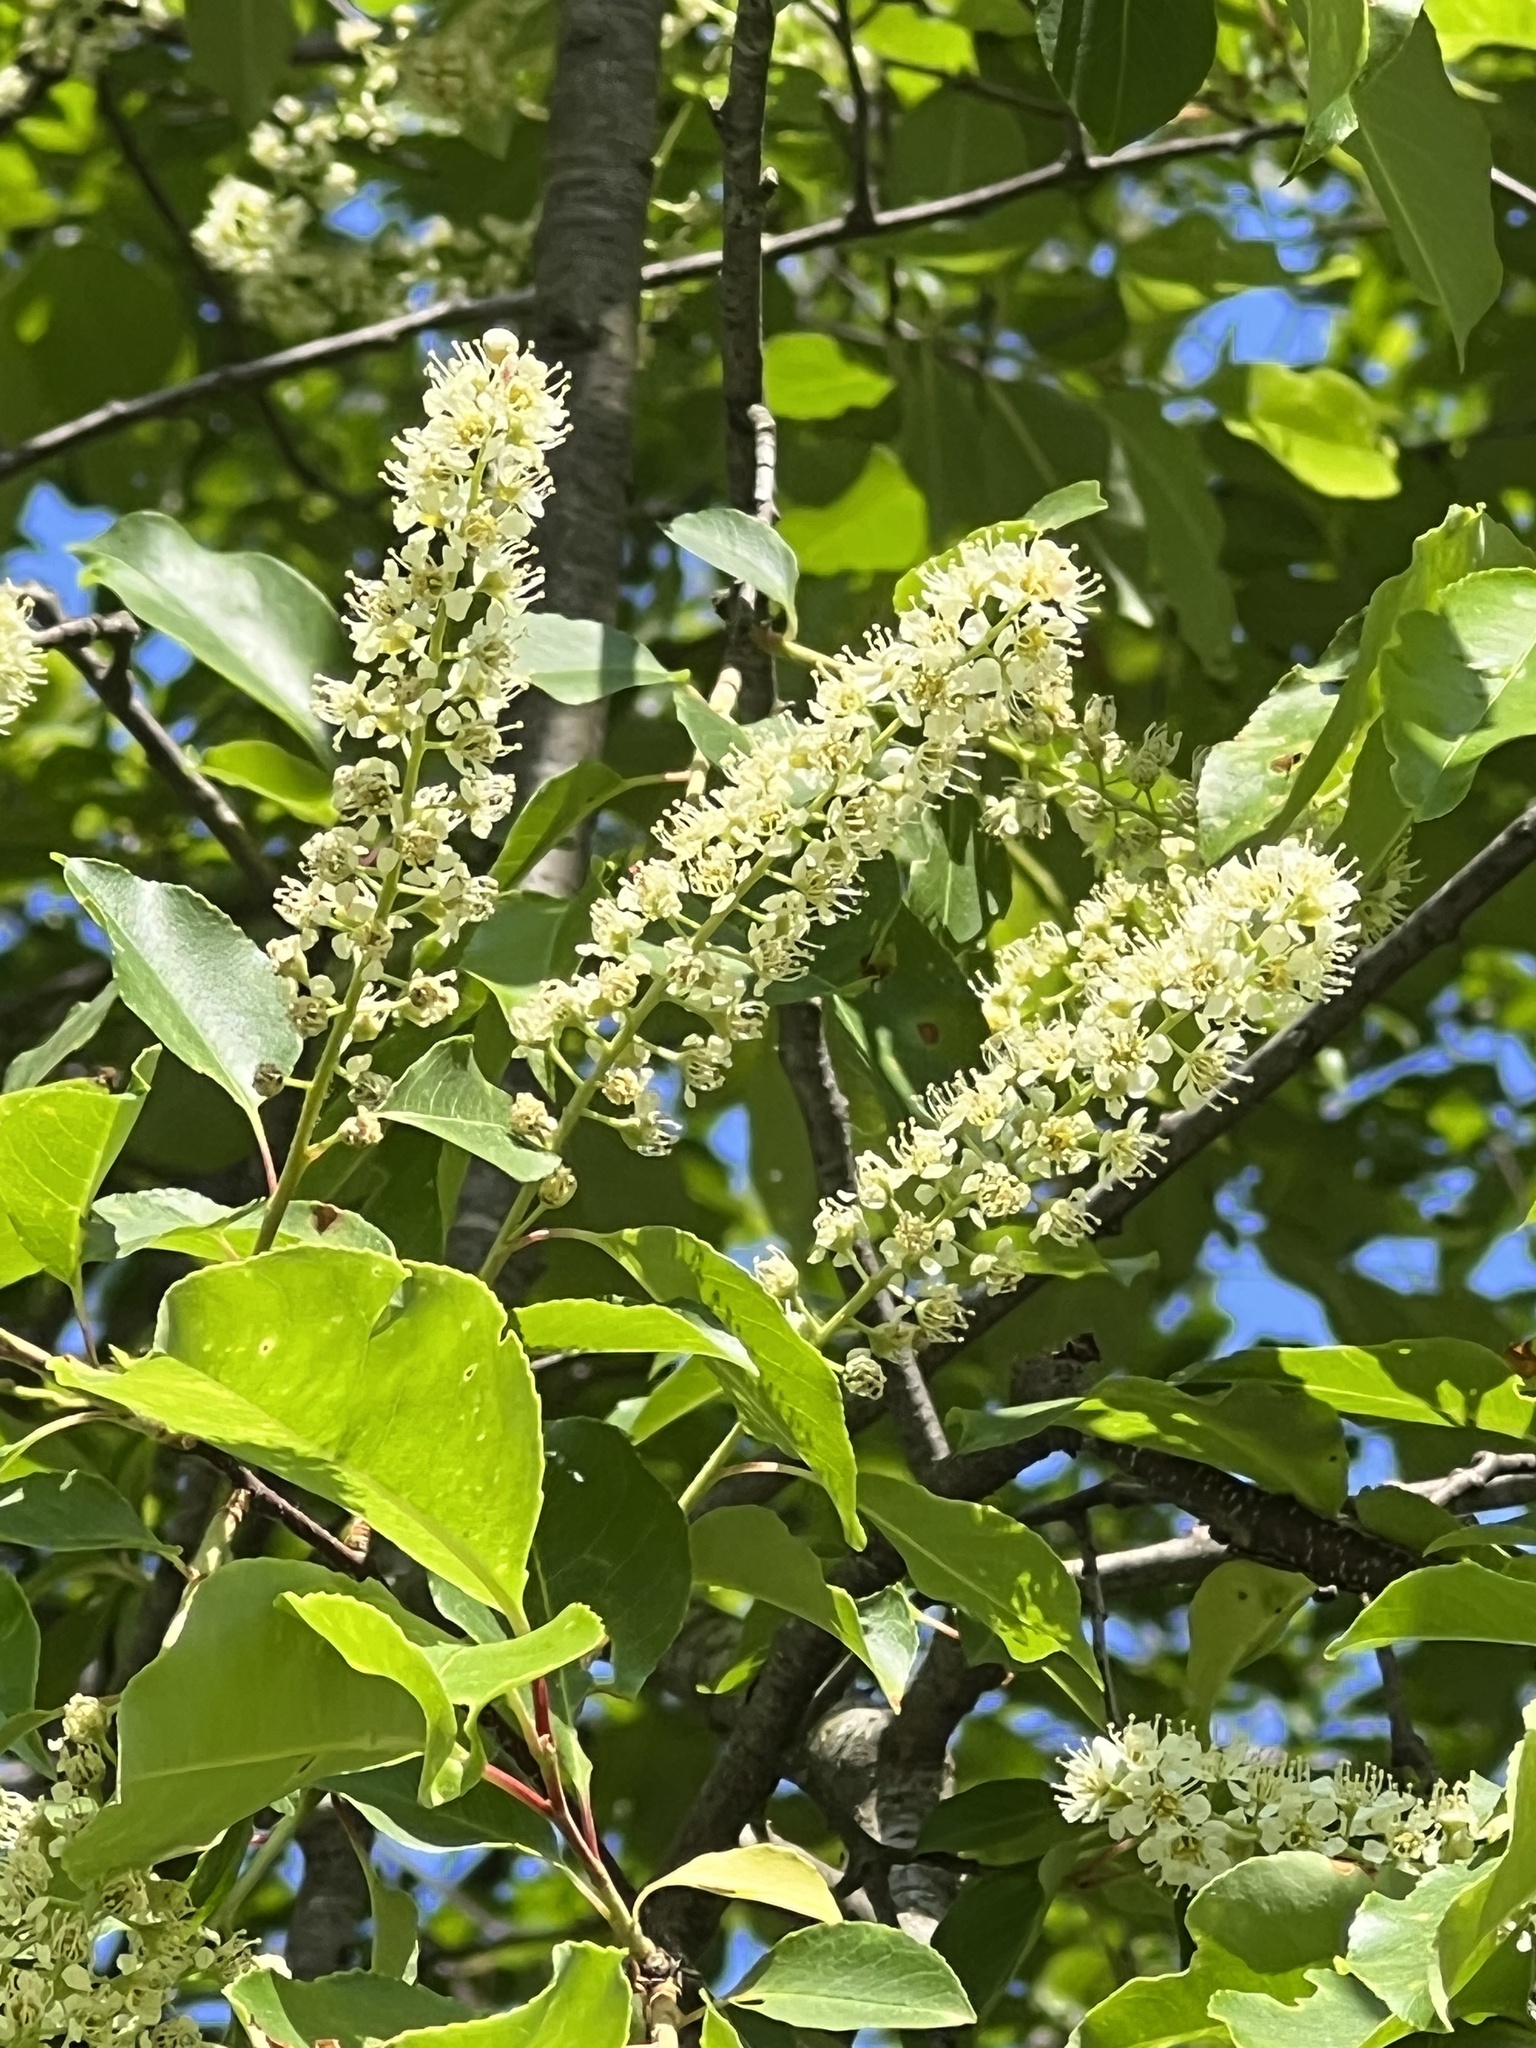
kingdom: Plantae
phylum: Tracheophyta
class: Magnoliopsida
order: Rosales
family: Rosaceae
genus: Prunus
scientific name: Prunus serotina
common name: Black cherry
